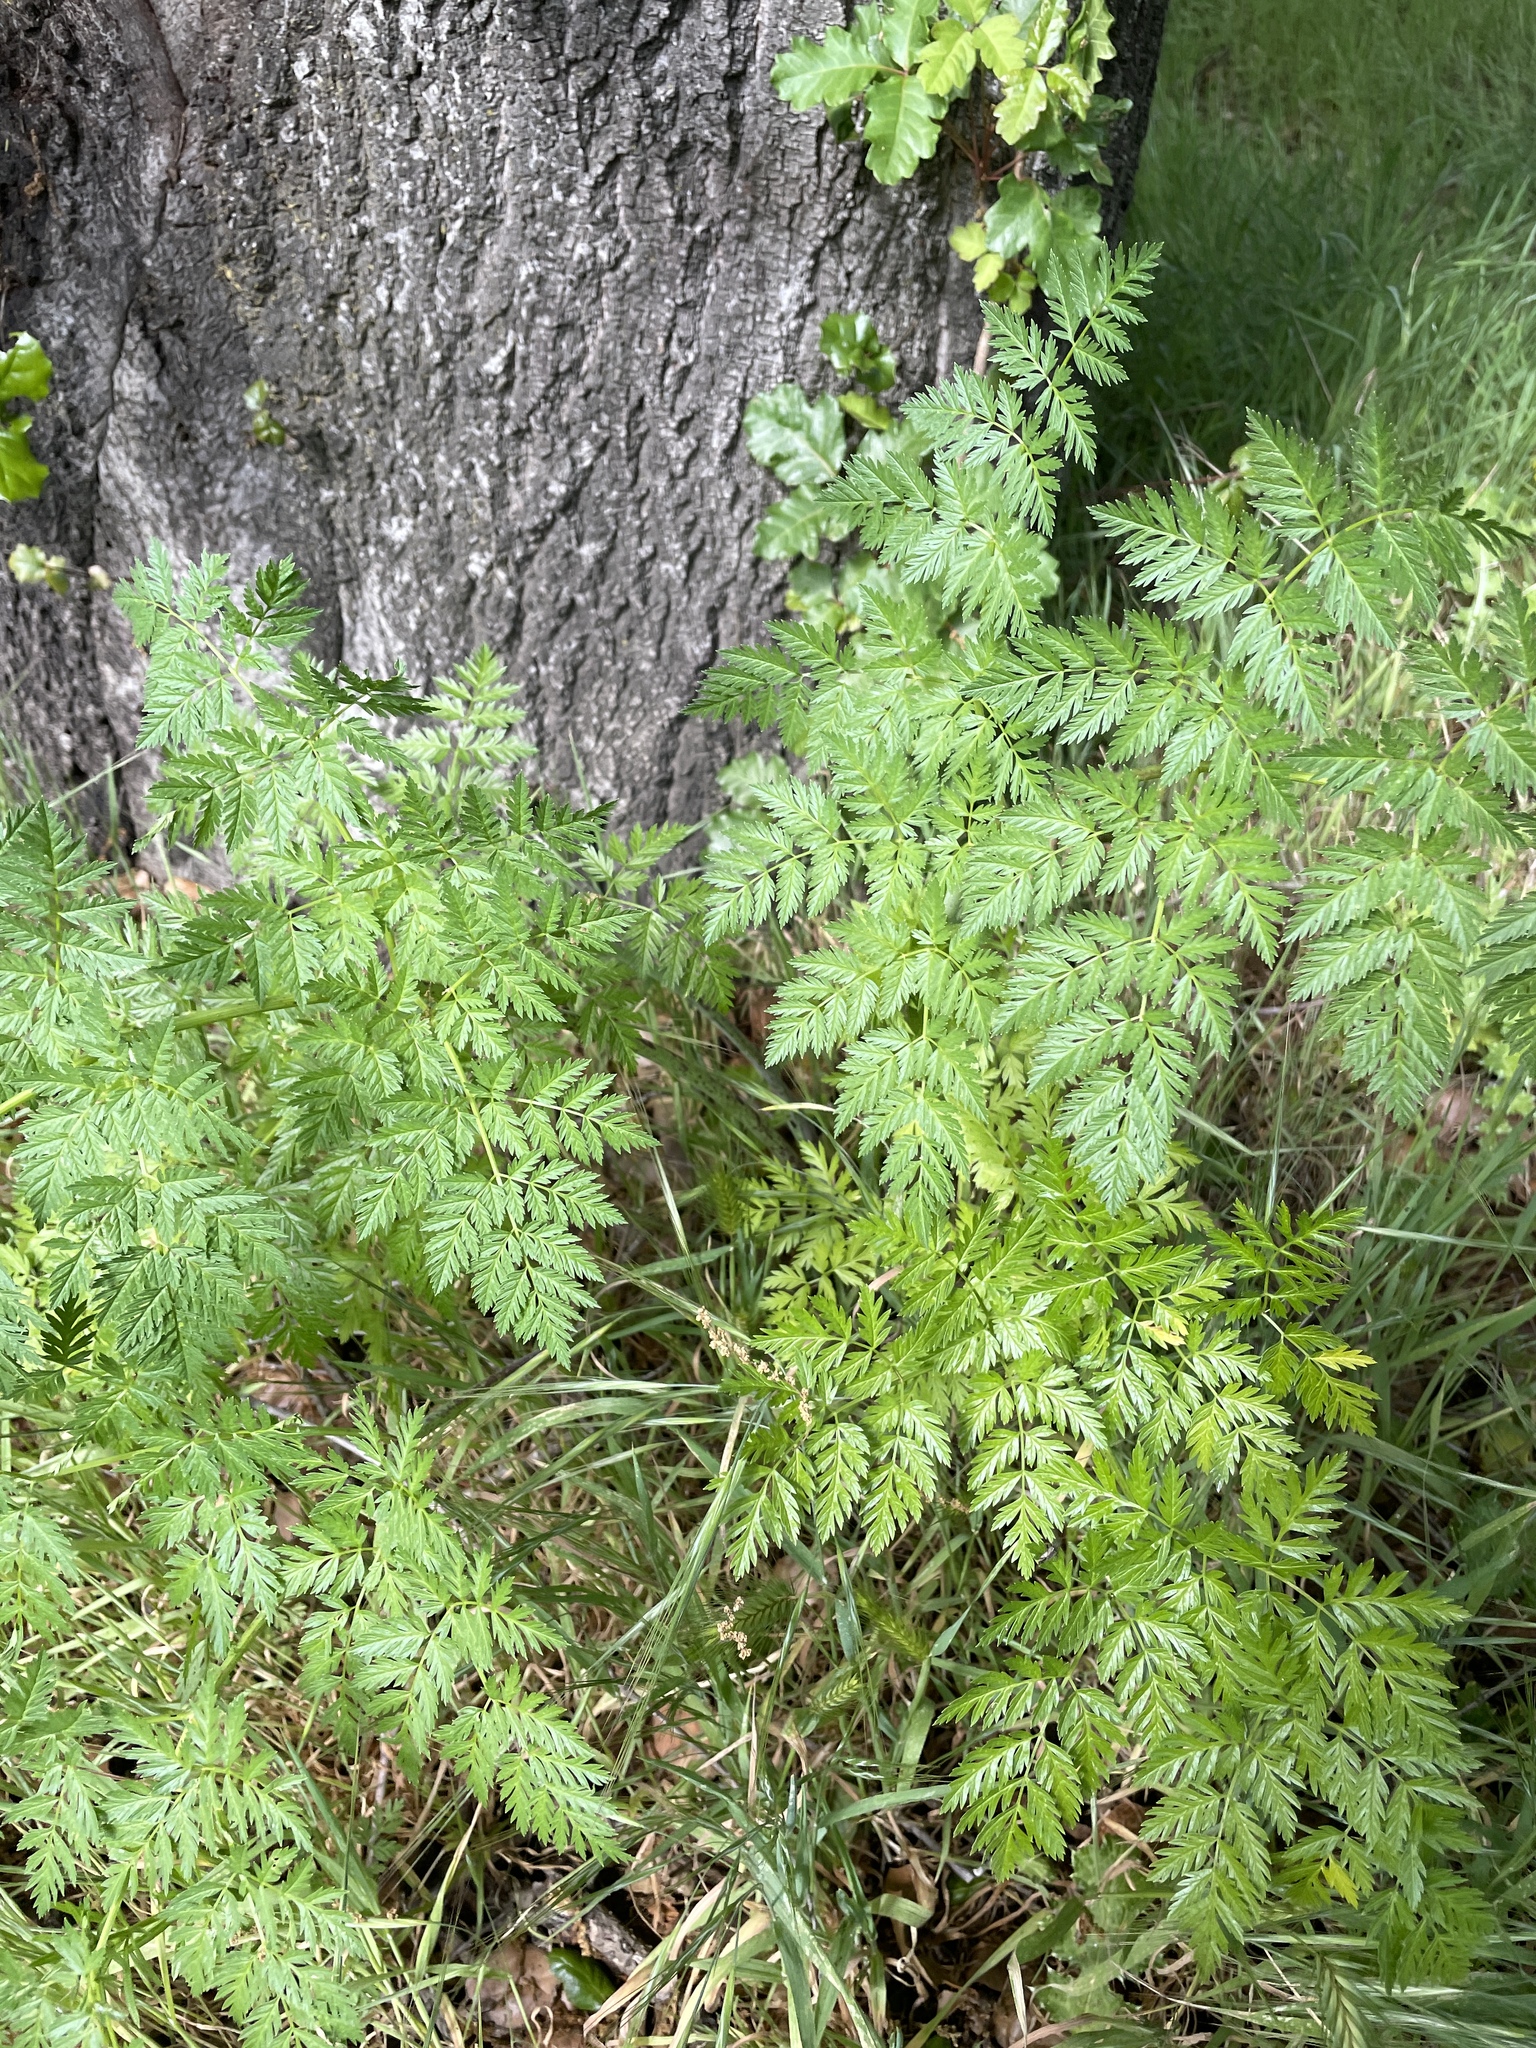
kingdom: Plantae
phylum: Tracheophyta
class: Magnoliopsida
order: Apiales
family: Apiaceae
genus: Conium
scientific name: Conium maculatum
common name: Hemlock
